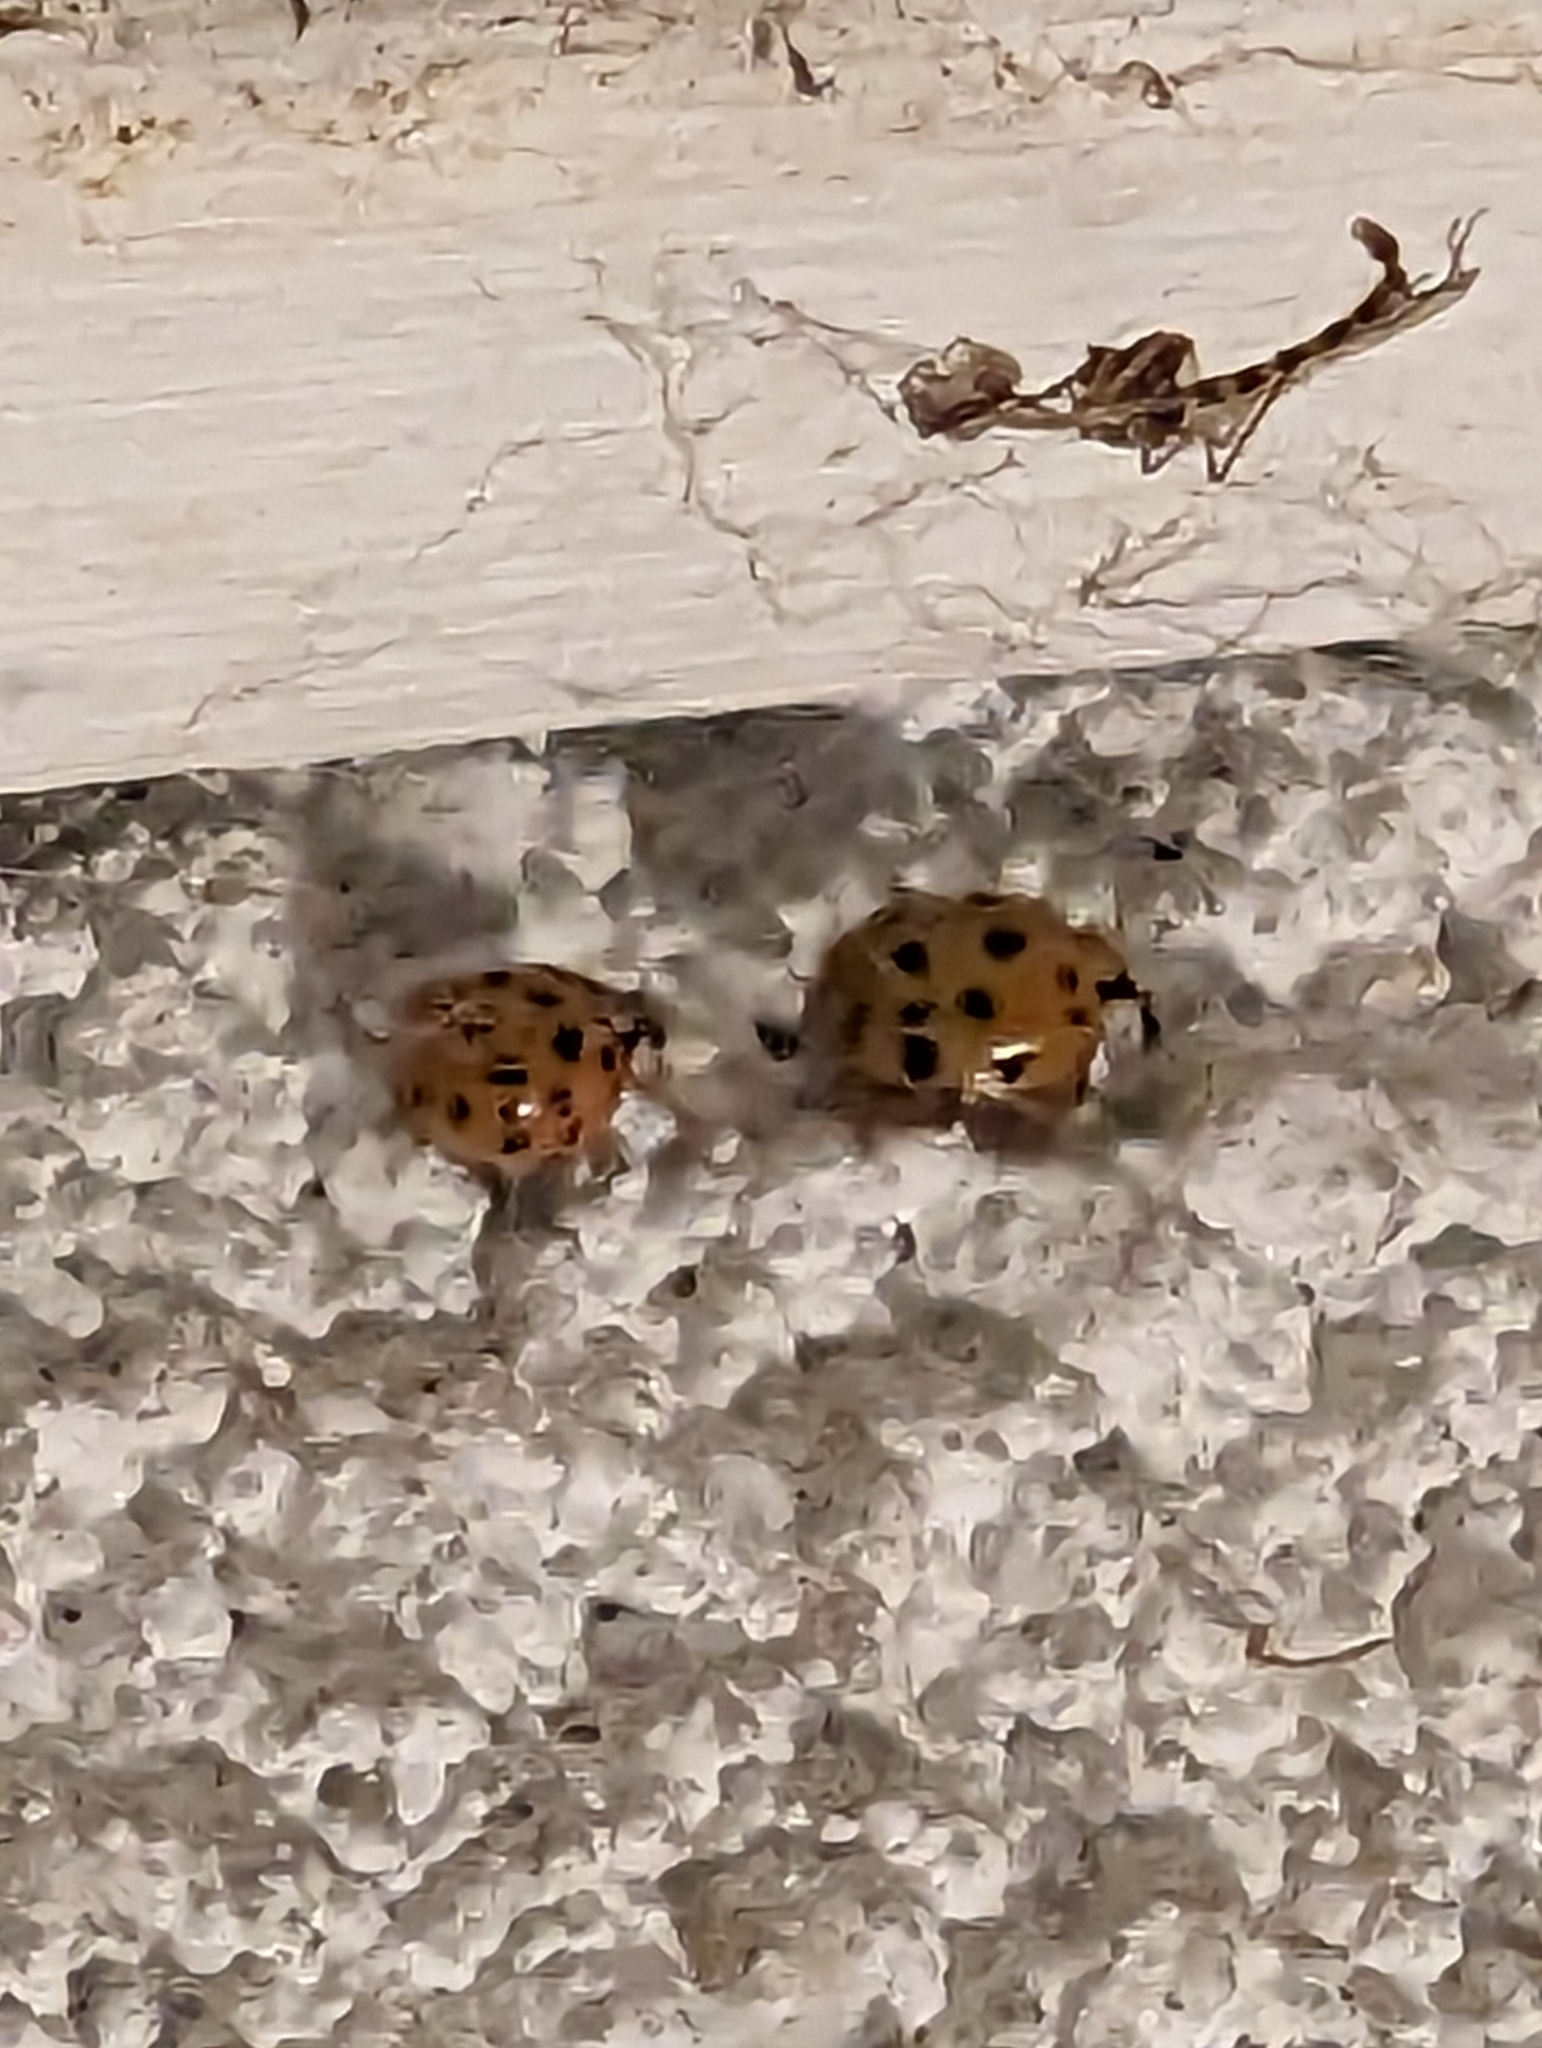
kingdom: Animalia
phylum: Arthropoda
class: Insecta
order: Coleoptera
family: Coccinellidae
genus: Harmonia
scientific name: Harmonia axyridis
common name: Harlequin ladybird
